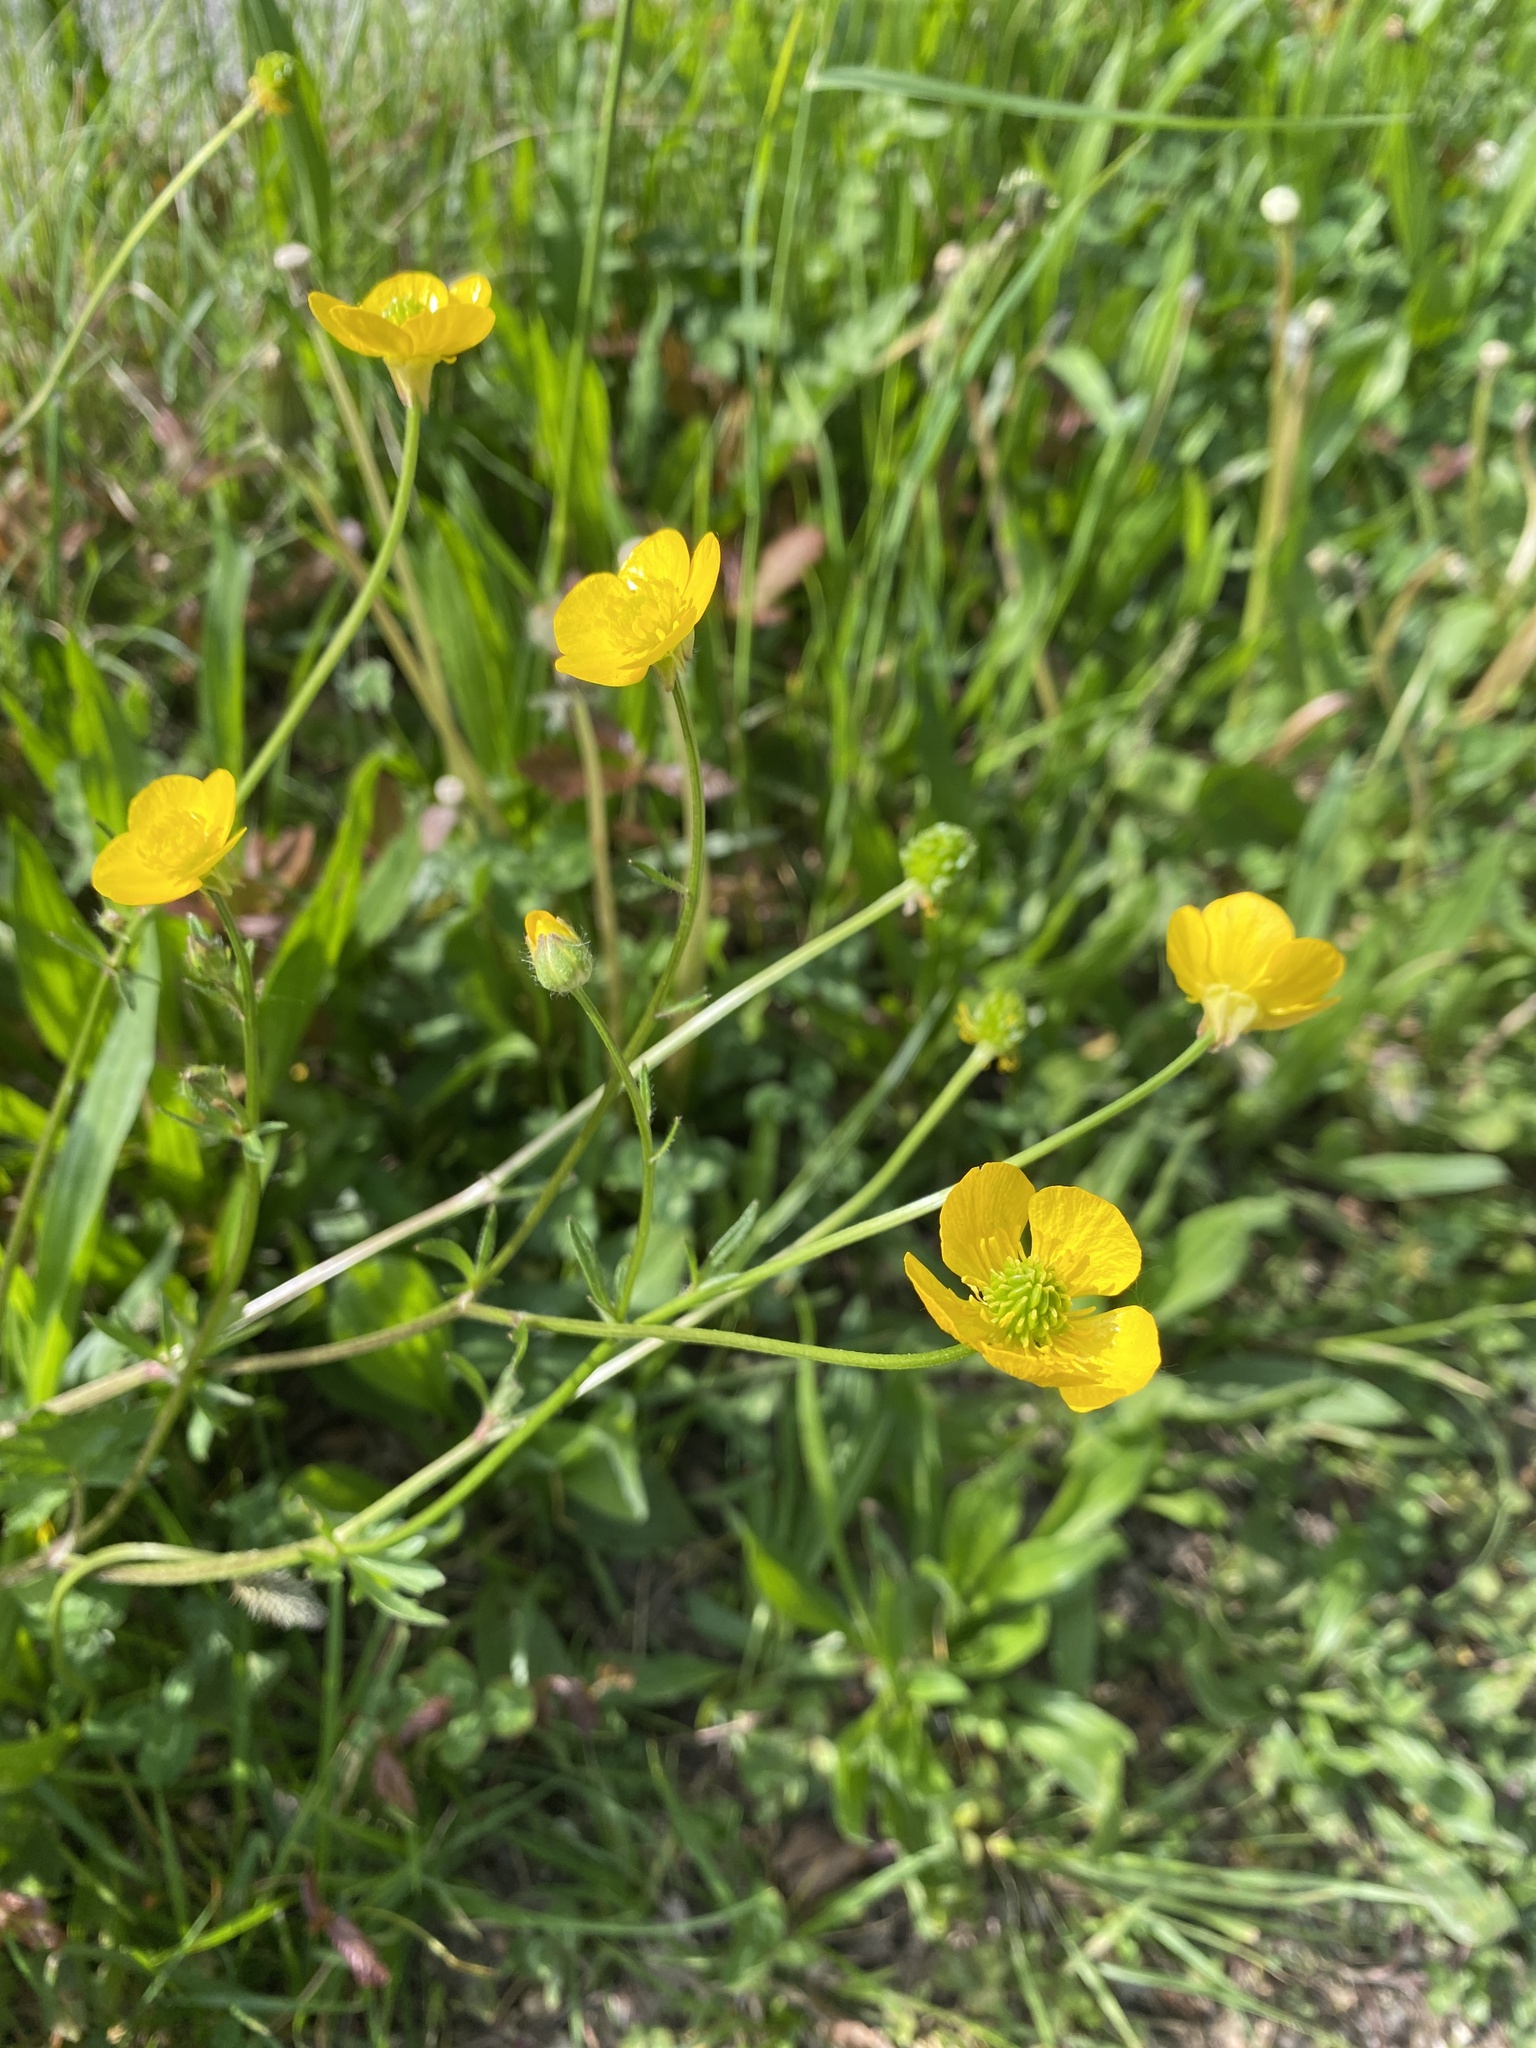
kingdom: Plantae
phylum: Tracheophyta
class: Magnoliopsida
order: Ranunculales
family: Ranunculaceae
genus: Ranunculus
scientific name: Ranunculus bulbosus
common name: Bulbous buttercup
